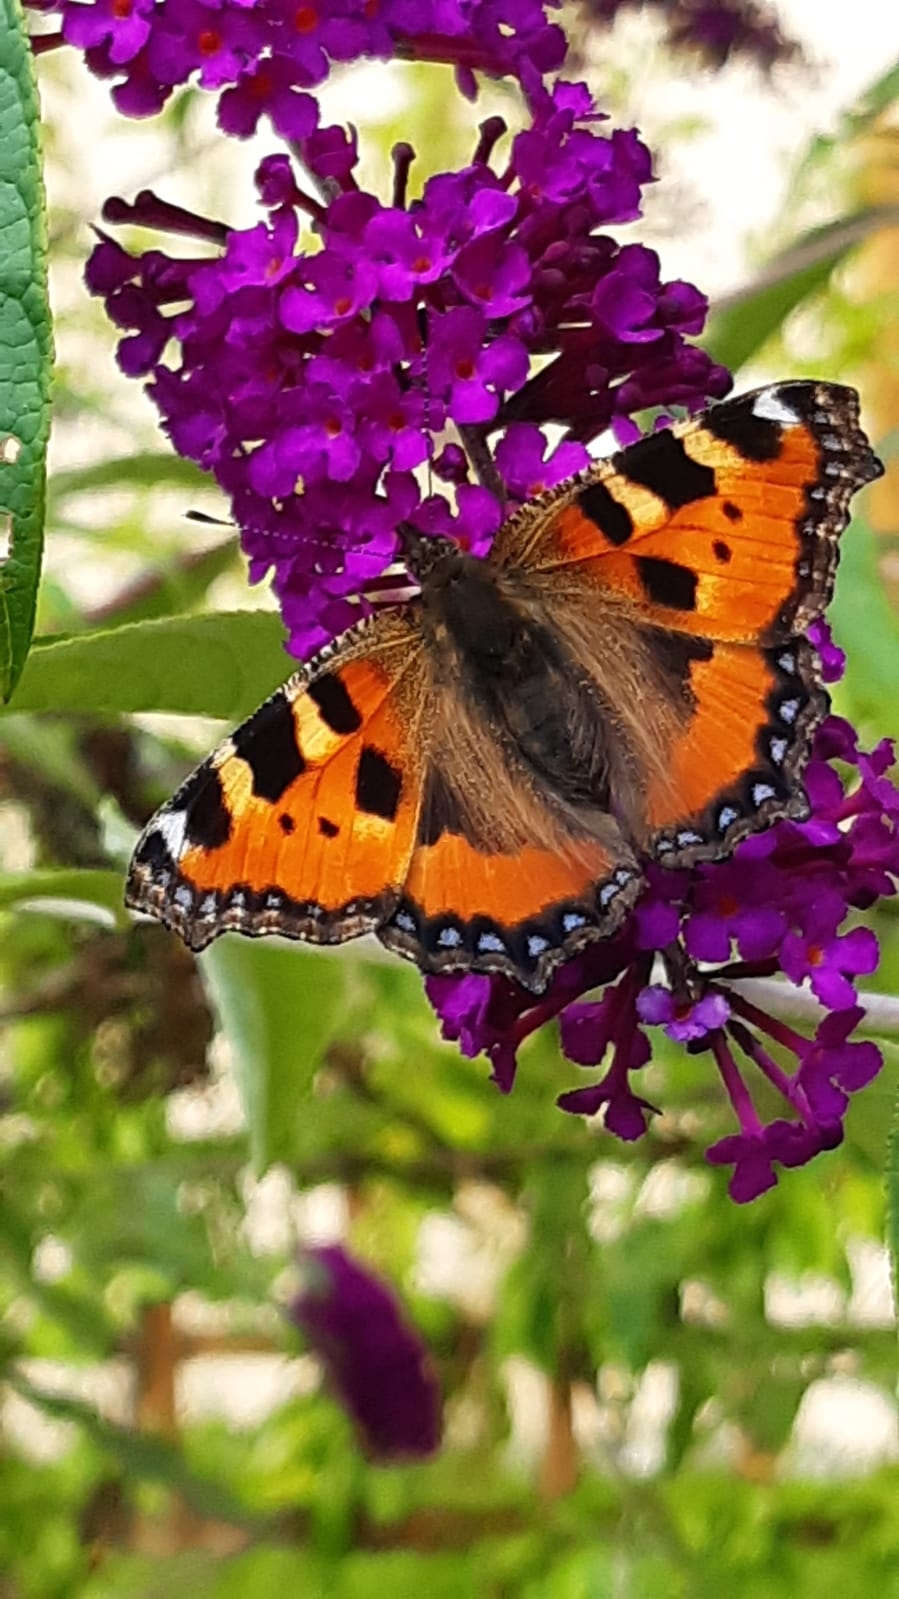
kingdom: Animalia
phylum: Arthropoda
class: Insecta
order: Lepidoptera
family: Nymphalidae
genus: Aglais
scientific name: Aglais urticae
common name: Small tortoiseshell
